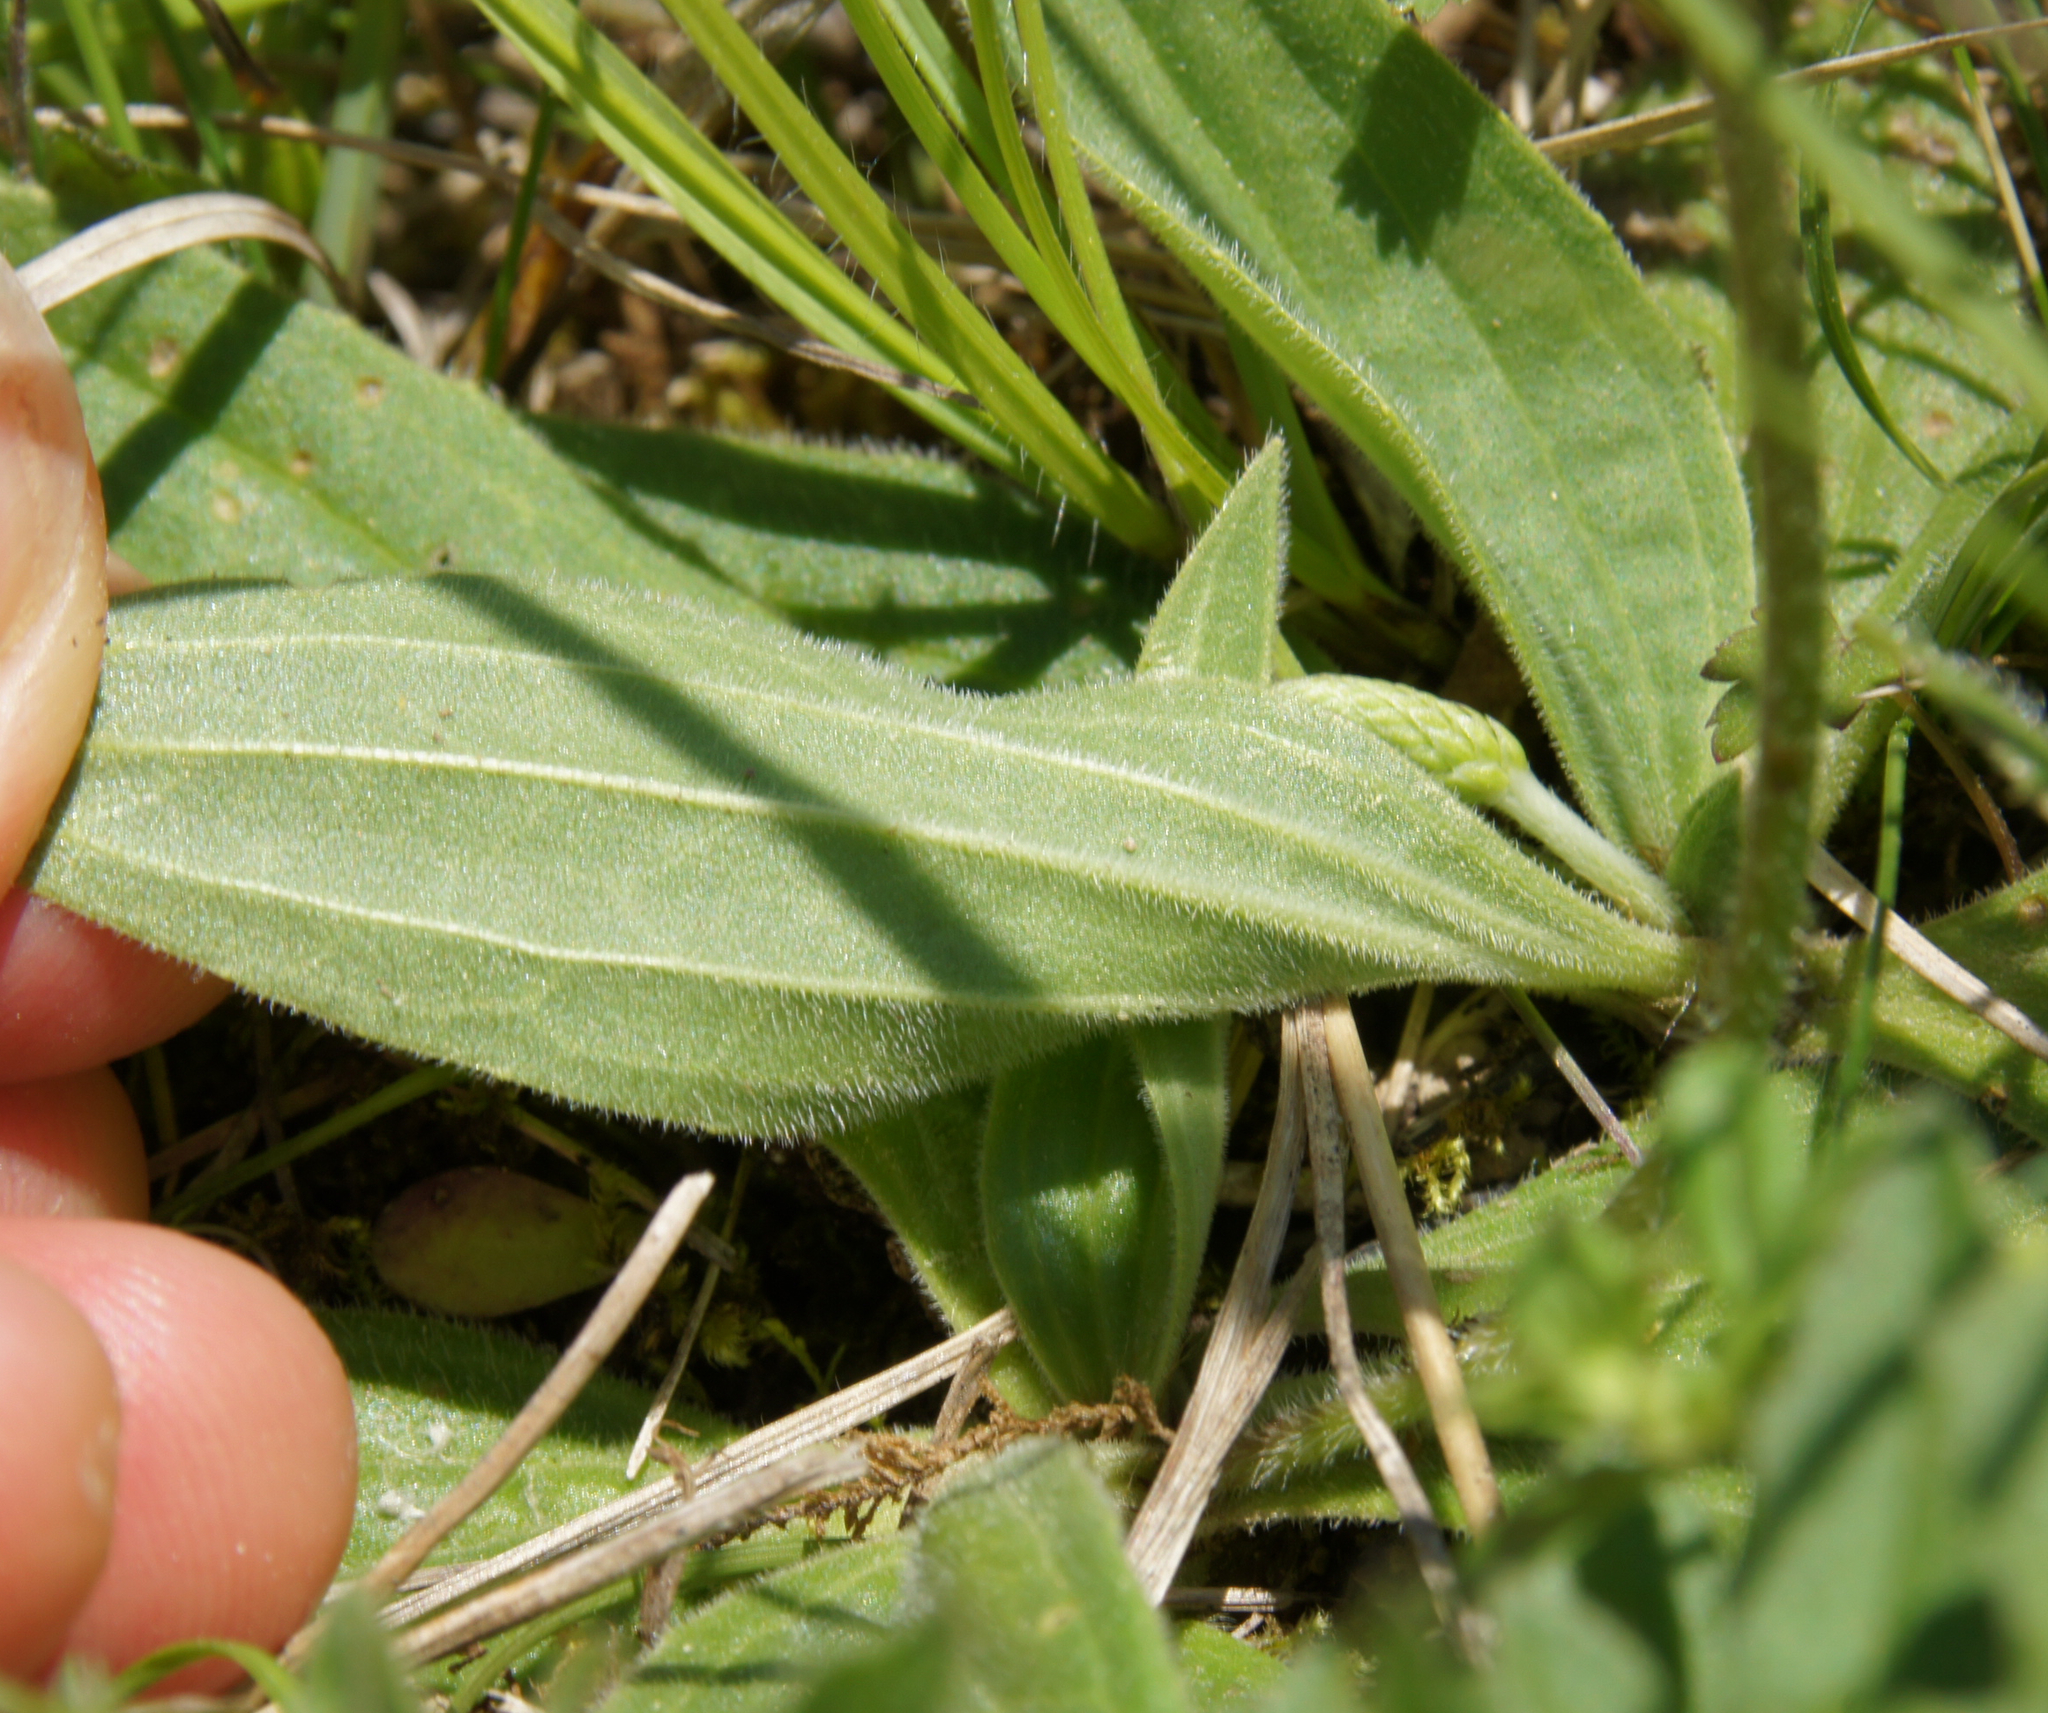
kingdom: Plantae
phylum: Tracheophyta
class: Magnoliopsida
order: Lamiales
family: Plantaginaceae
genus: Plantago
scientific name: Plantago media
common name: Hoary plantain
